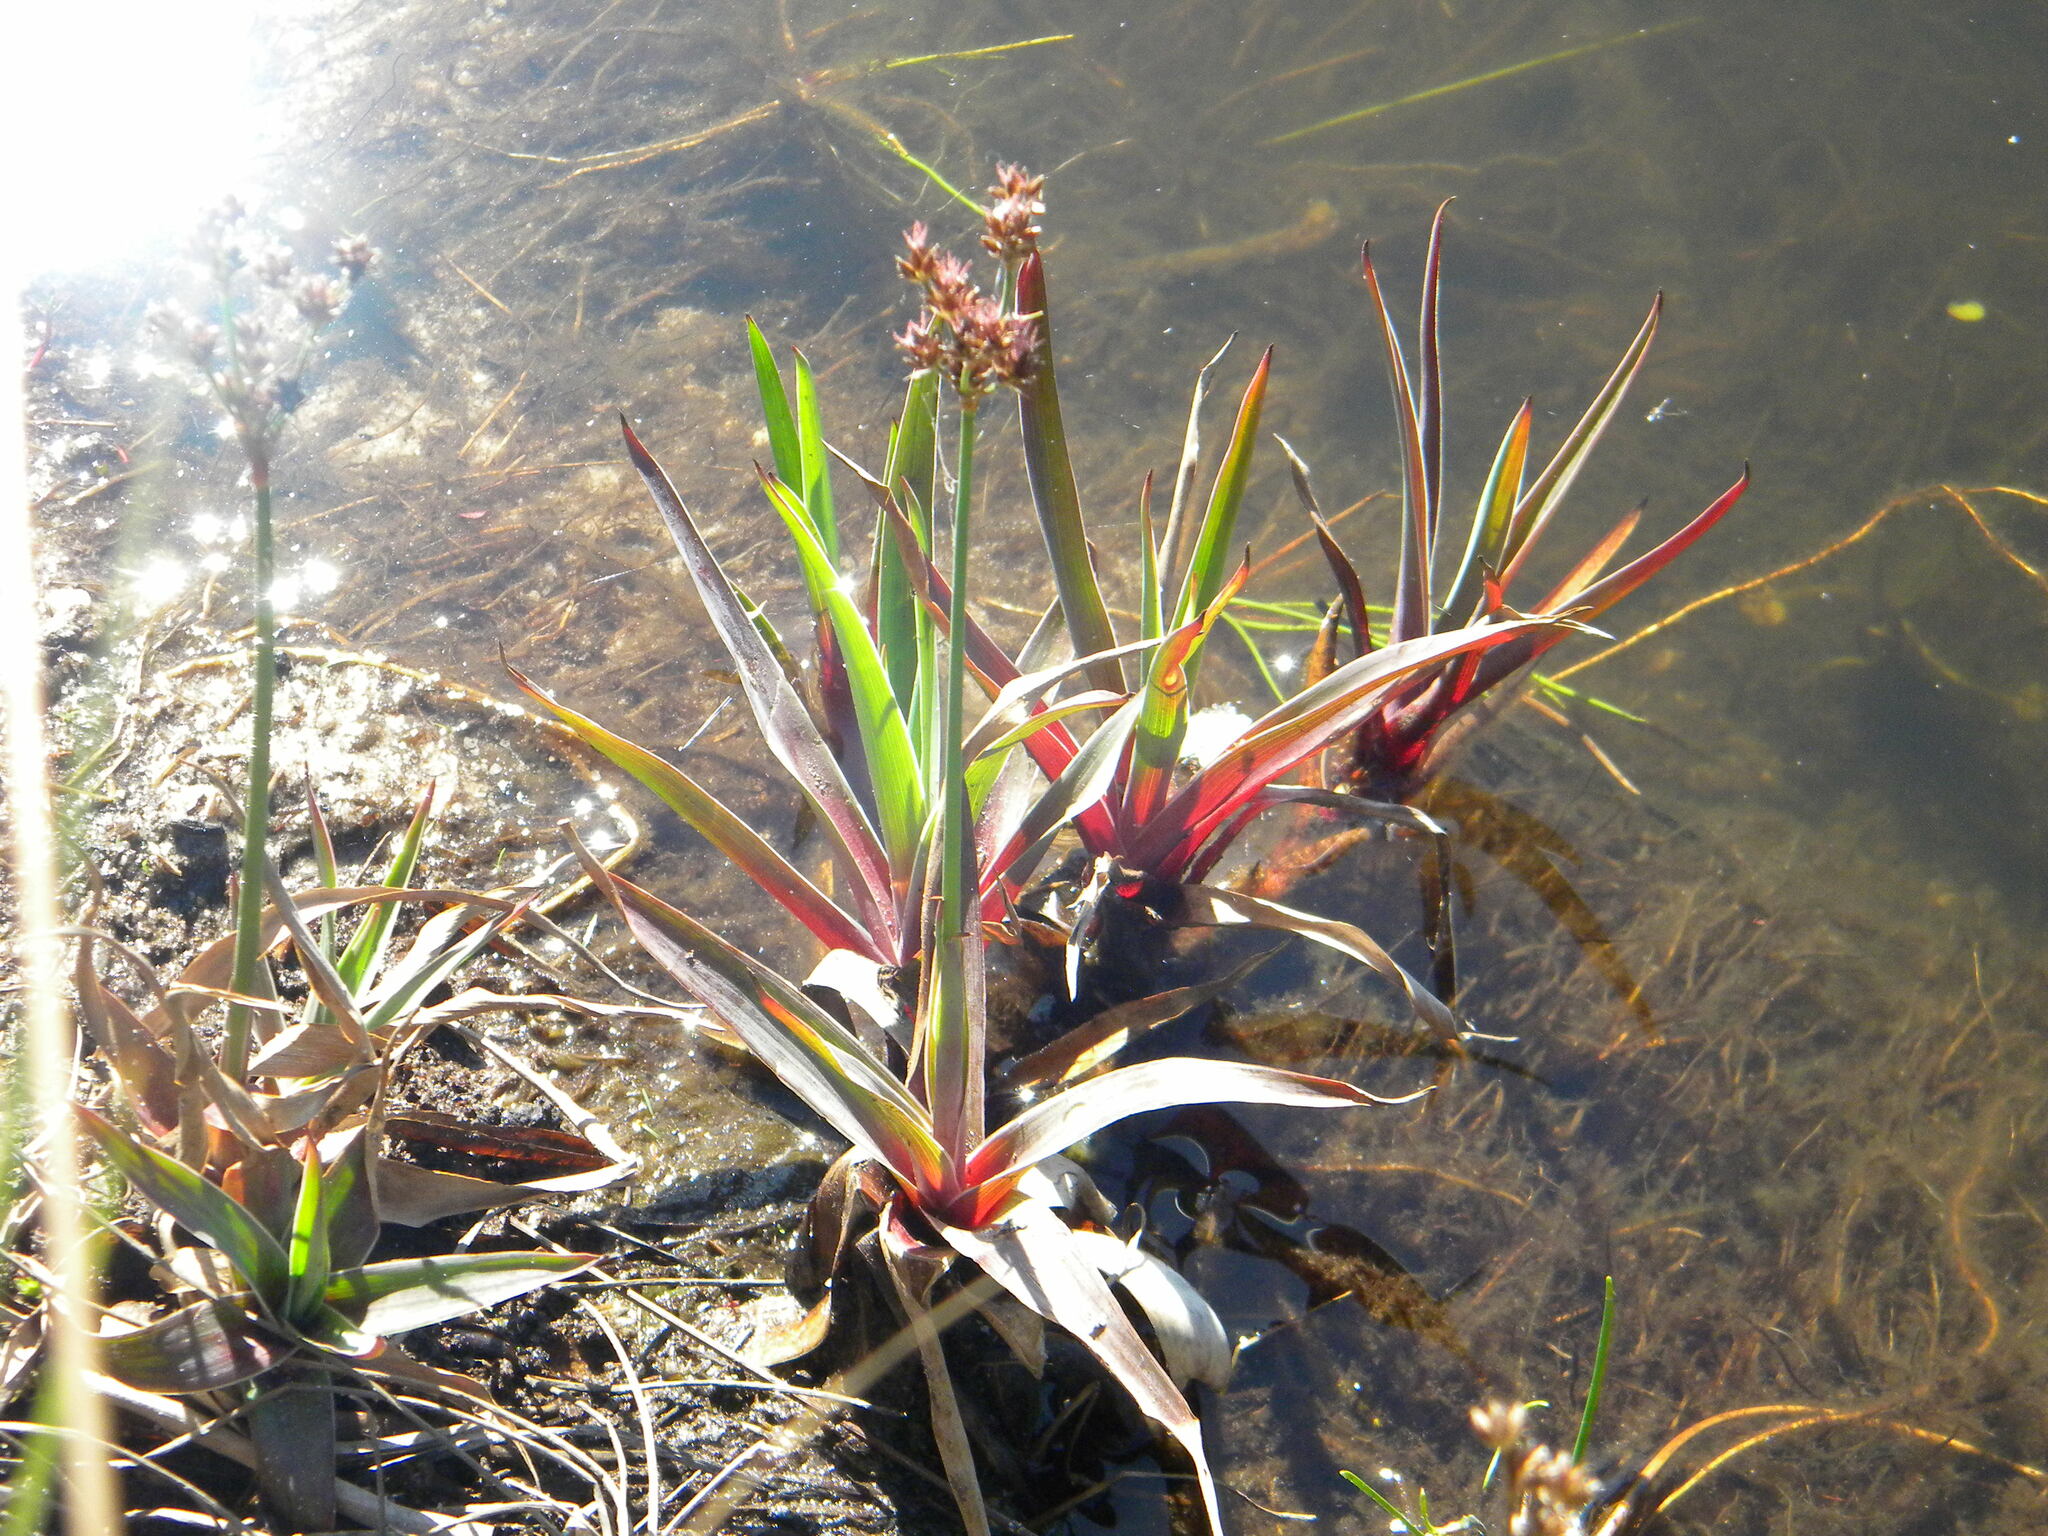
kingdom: Plantae
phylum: Tracheophyta
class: Liliopsida
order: Poales
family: Juncaceae
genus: Juncus
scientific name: Juncus lomatophyllus
